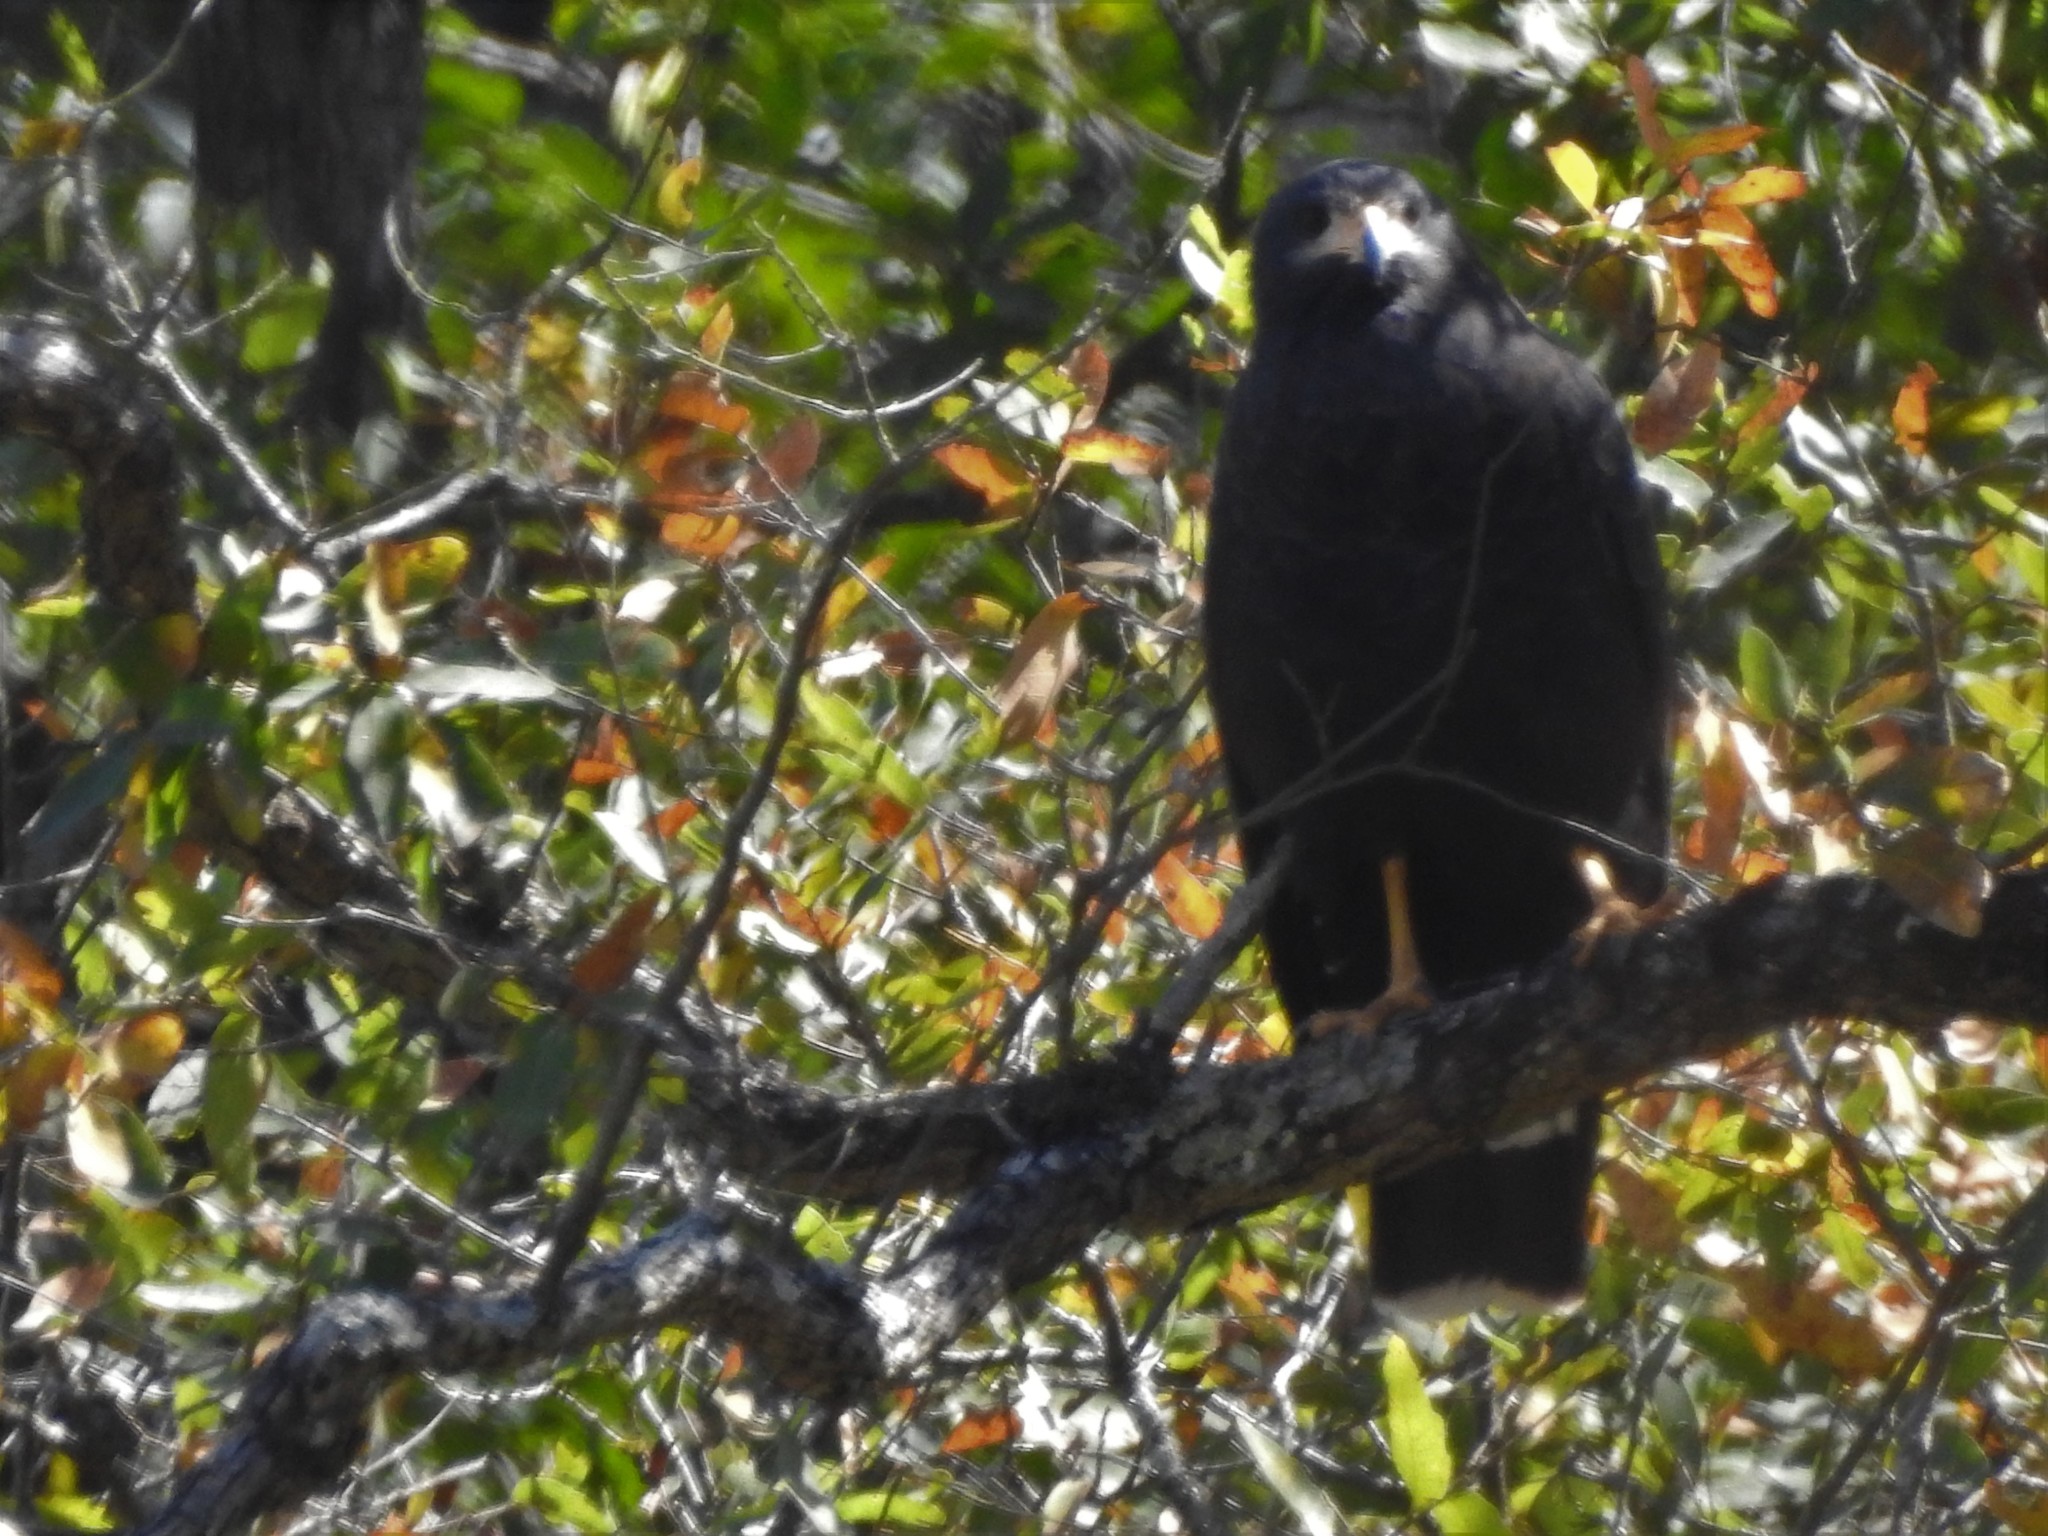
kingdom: Animalia
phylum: Chordata
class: Aves
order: Accipitriformes
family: Accipitridae
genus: Buteogallus
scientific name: Buteogallus anthracinus
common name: Common black hawk
